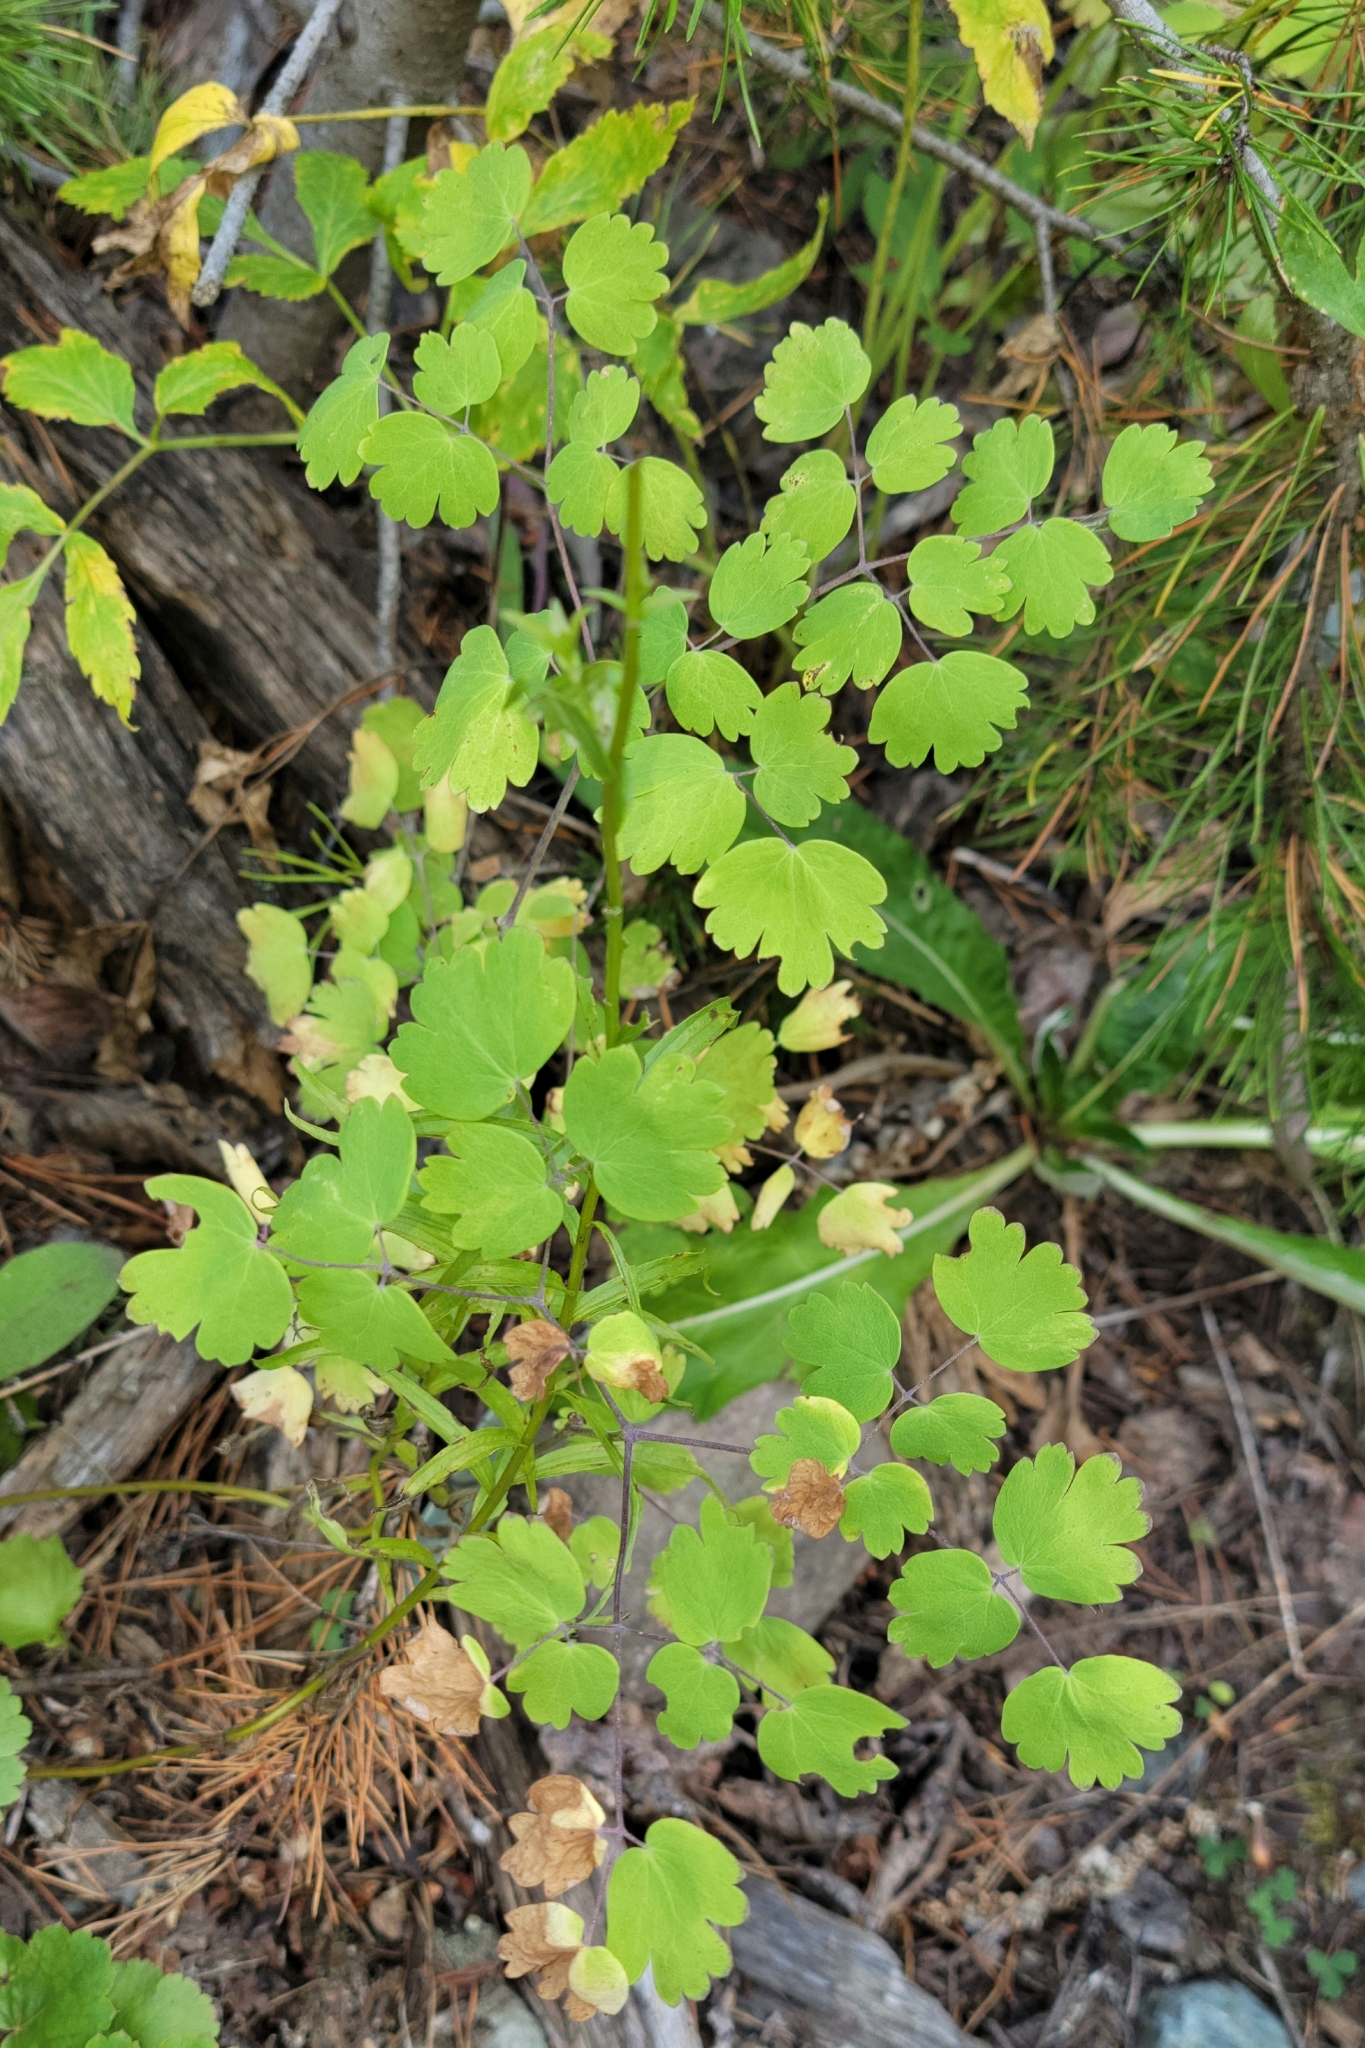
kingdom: Plantae
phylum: Tracheophyta
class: Magnoliopsida
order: Ranunculales
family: Ranunculaceae
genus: Thalictrum
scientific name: Thalictrum occidentale
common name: Western meadow-rue
